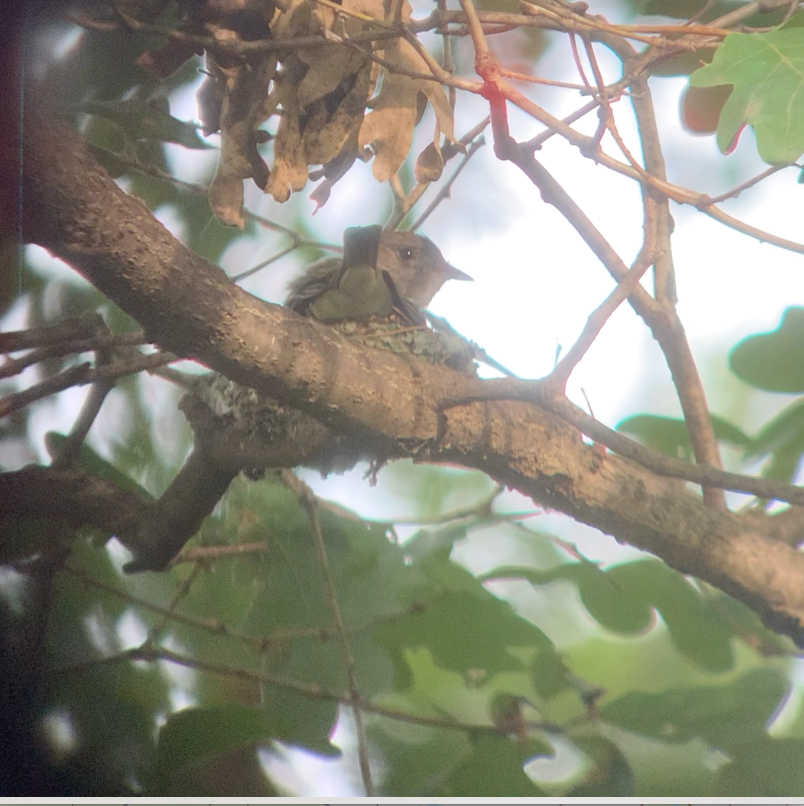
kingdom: Animalia
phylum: Chordata
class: Aves
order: Passeriformes
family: Tyrannidae
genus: Contopus
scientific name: Contopus virens
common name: Eastern wood-pewee
